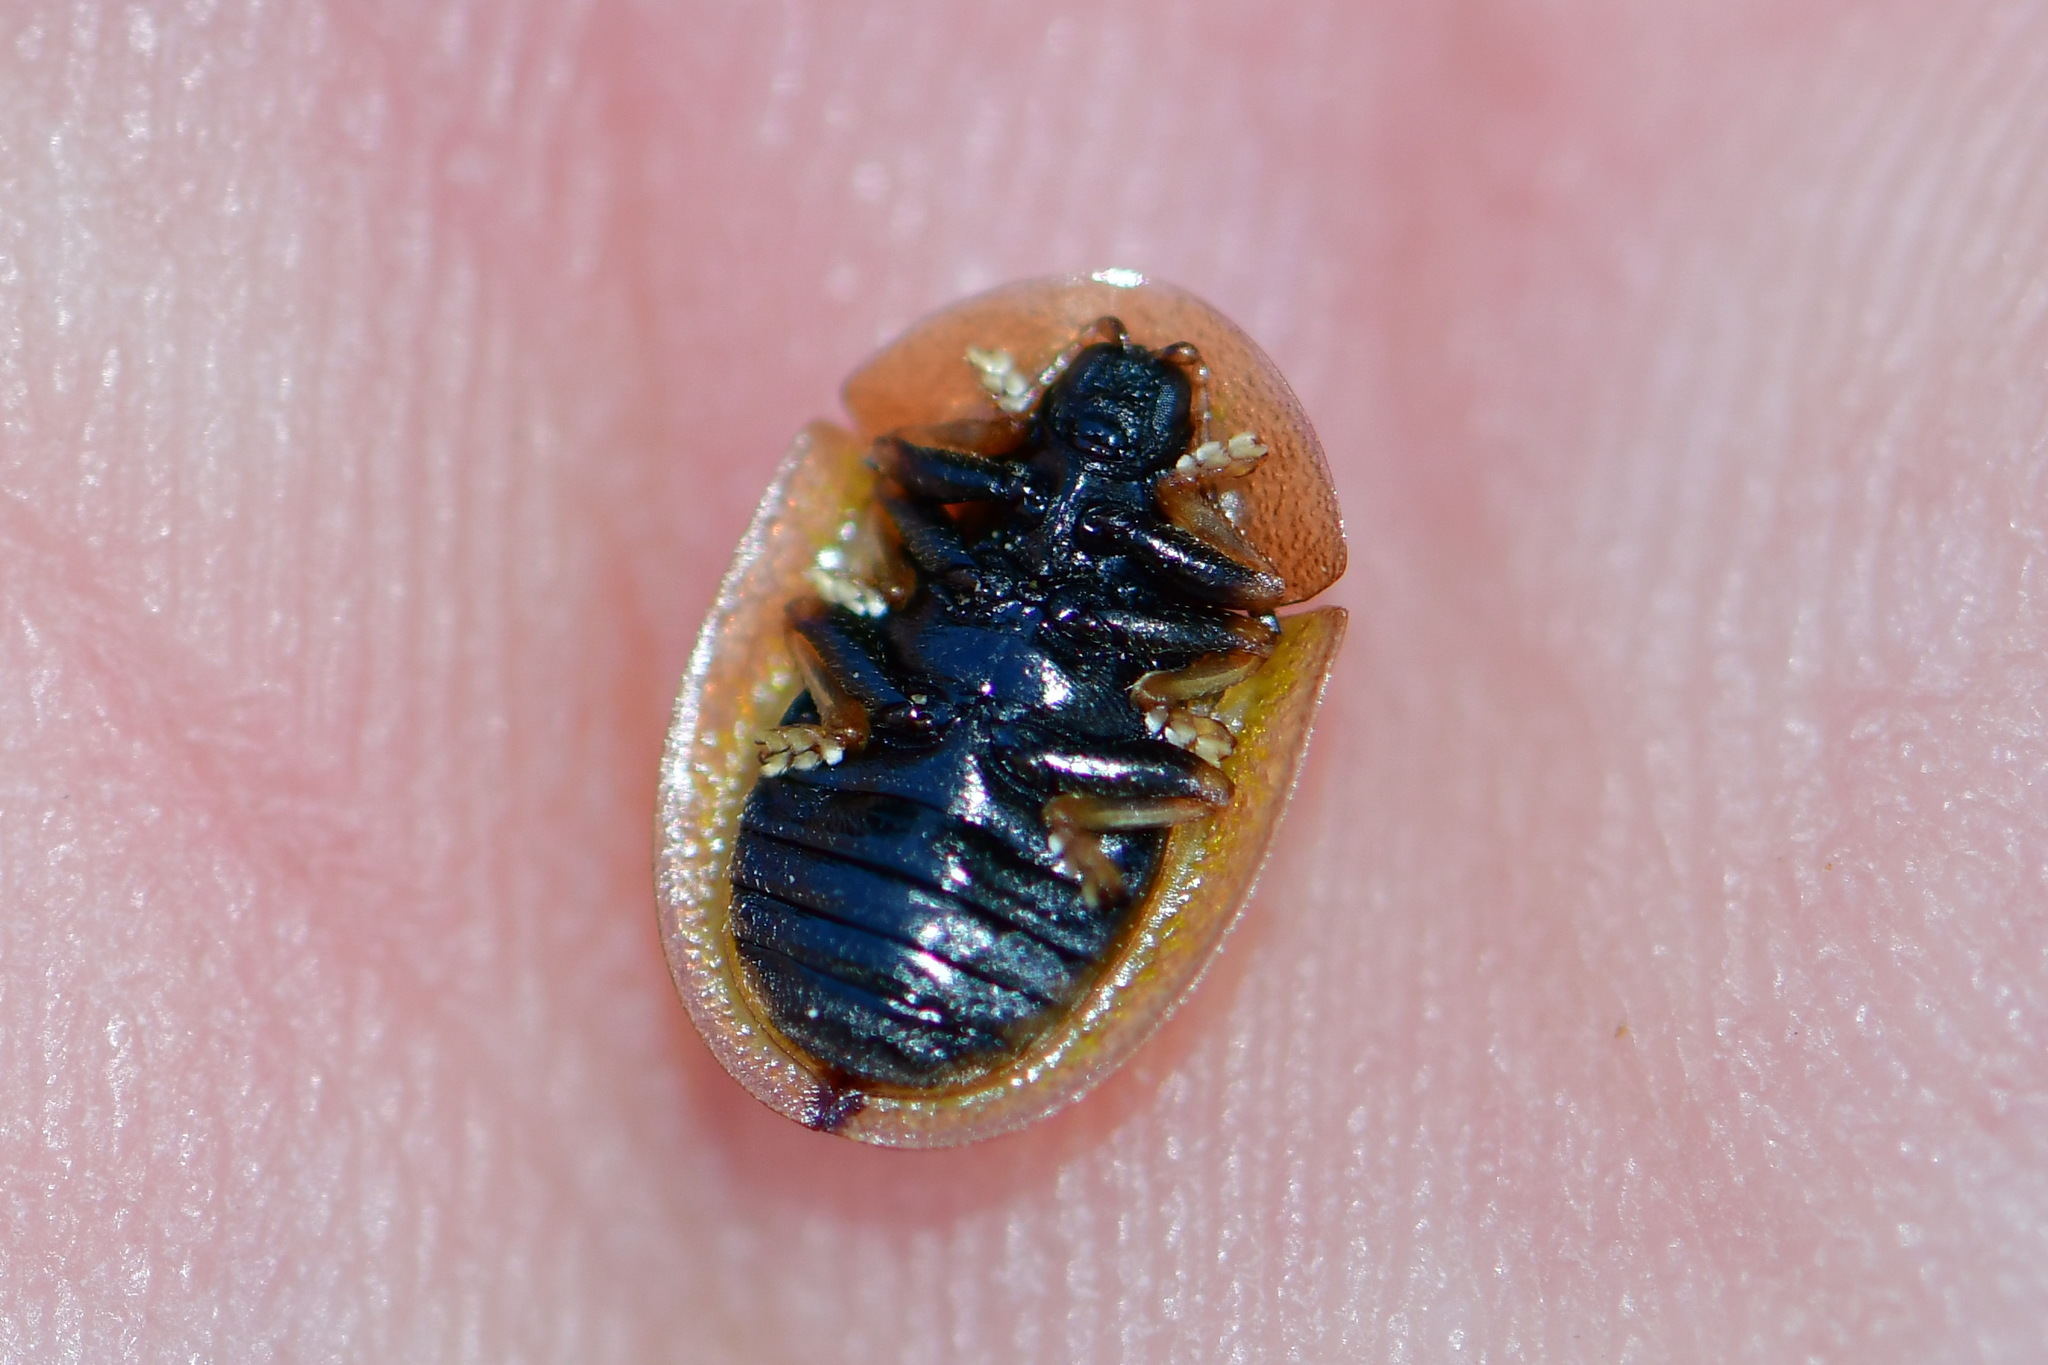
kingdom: Animalia
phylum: Arthropoda
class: Insecta
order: Coleoptera
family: Chrysomelidae
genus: Cassida
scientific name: Cassida vibex
